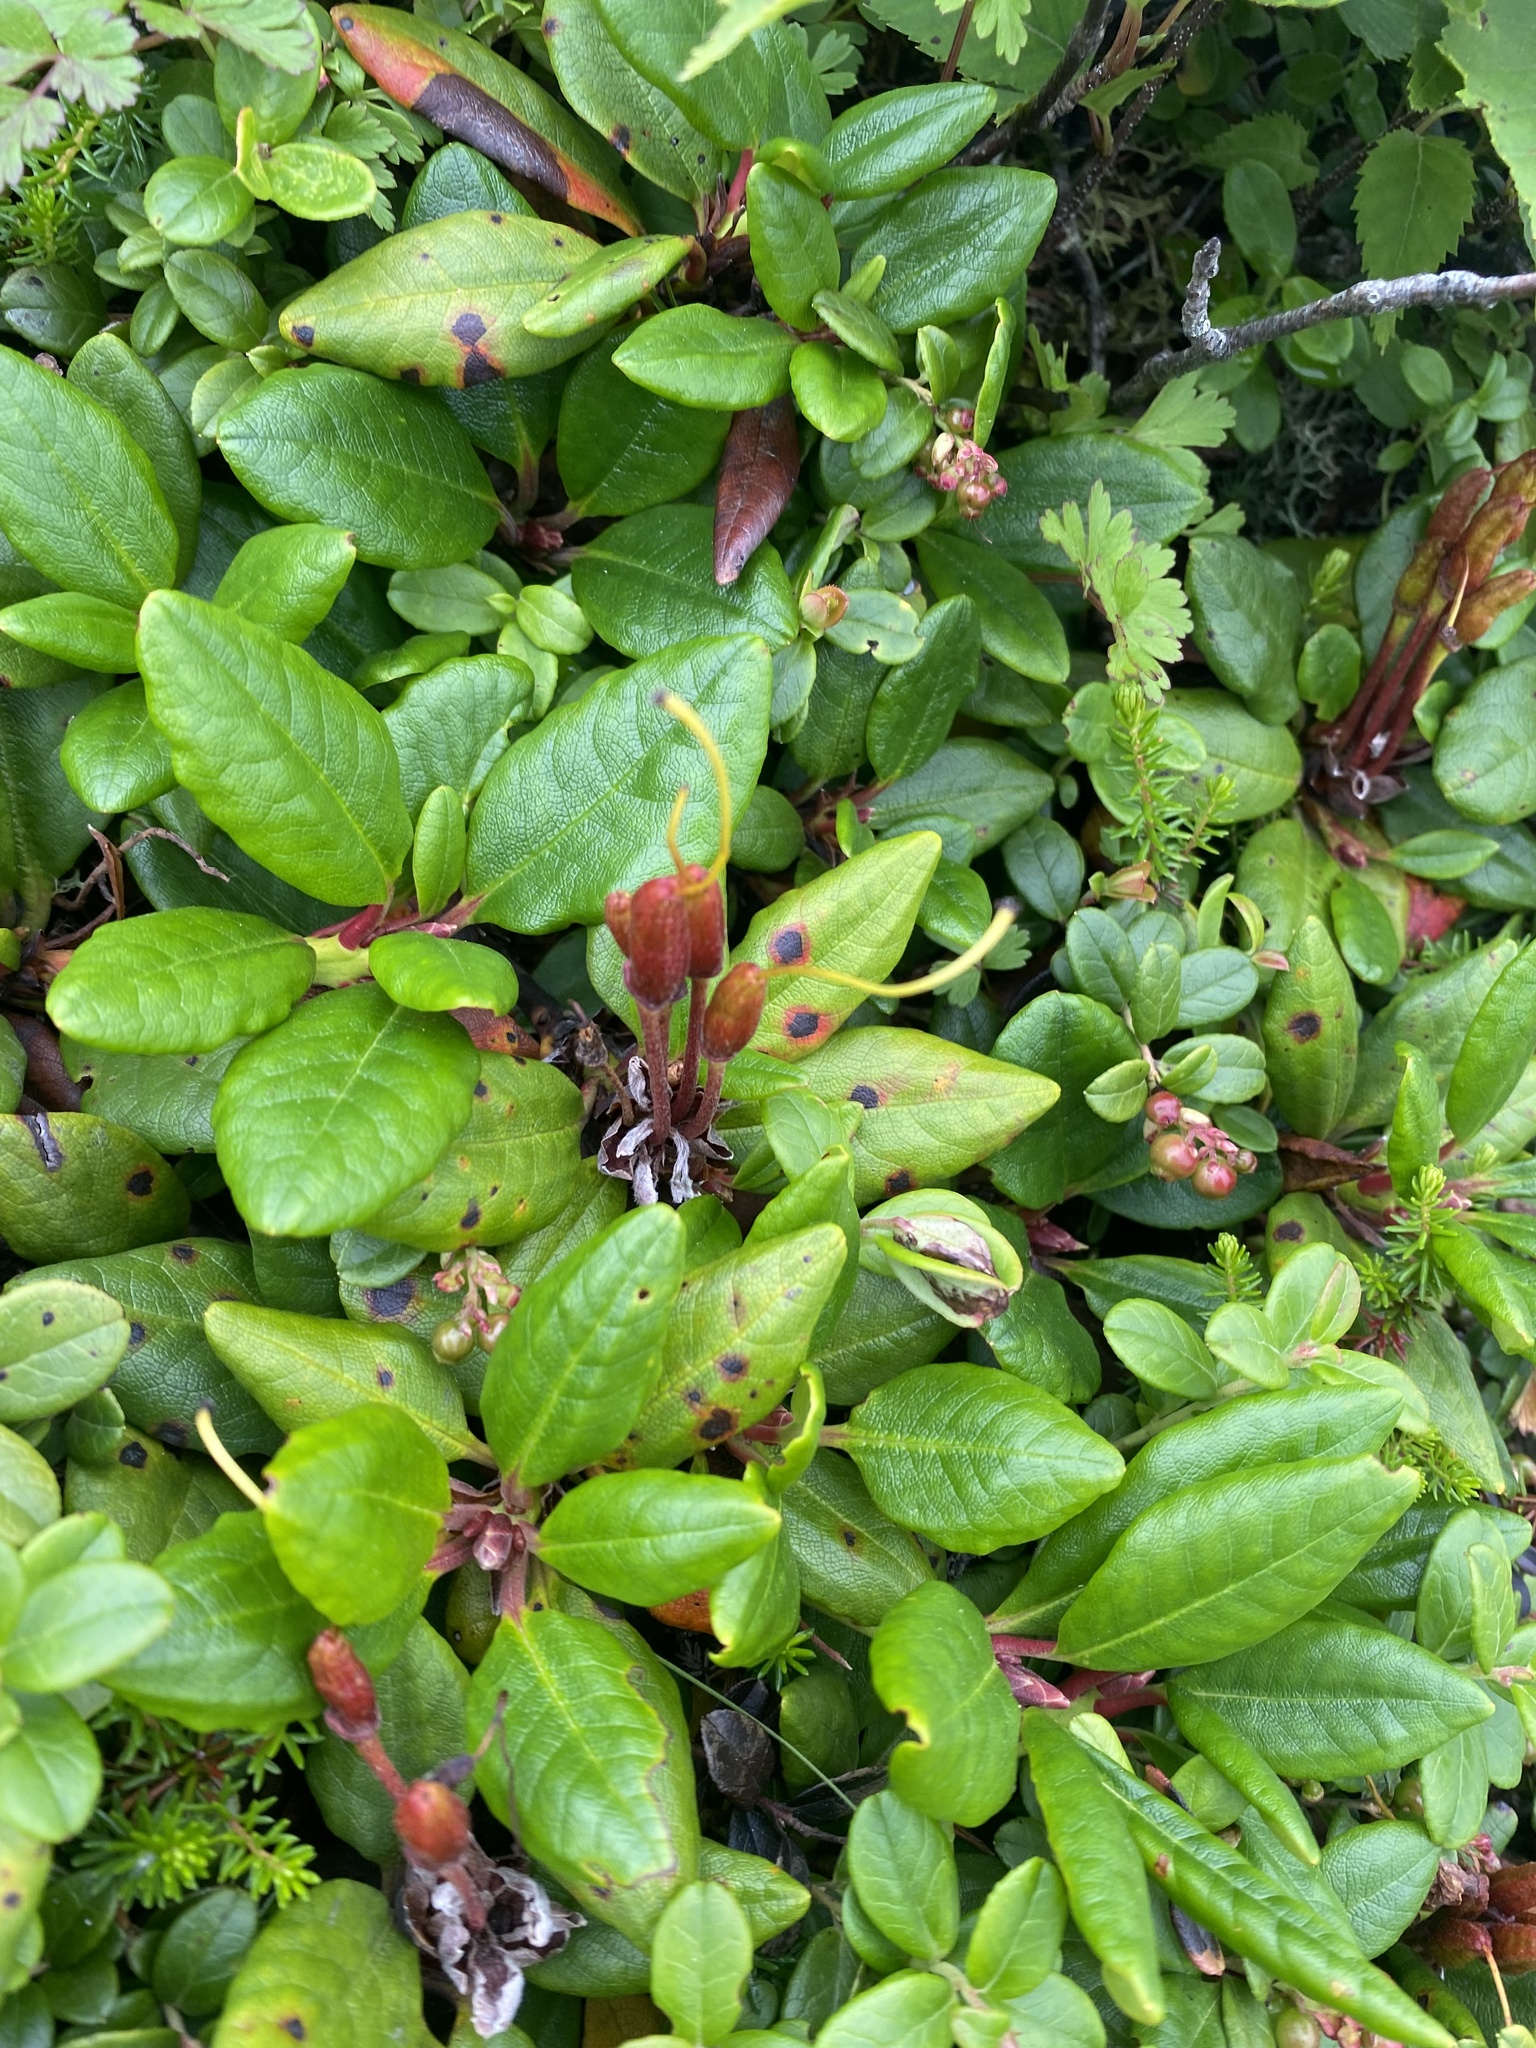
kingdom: Plantae
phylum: Tracheophyta
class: Magnoliopsida
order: Ericales
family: Ericaceae
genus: Rhododendron
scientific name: Rhododendron aureum
